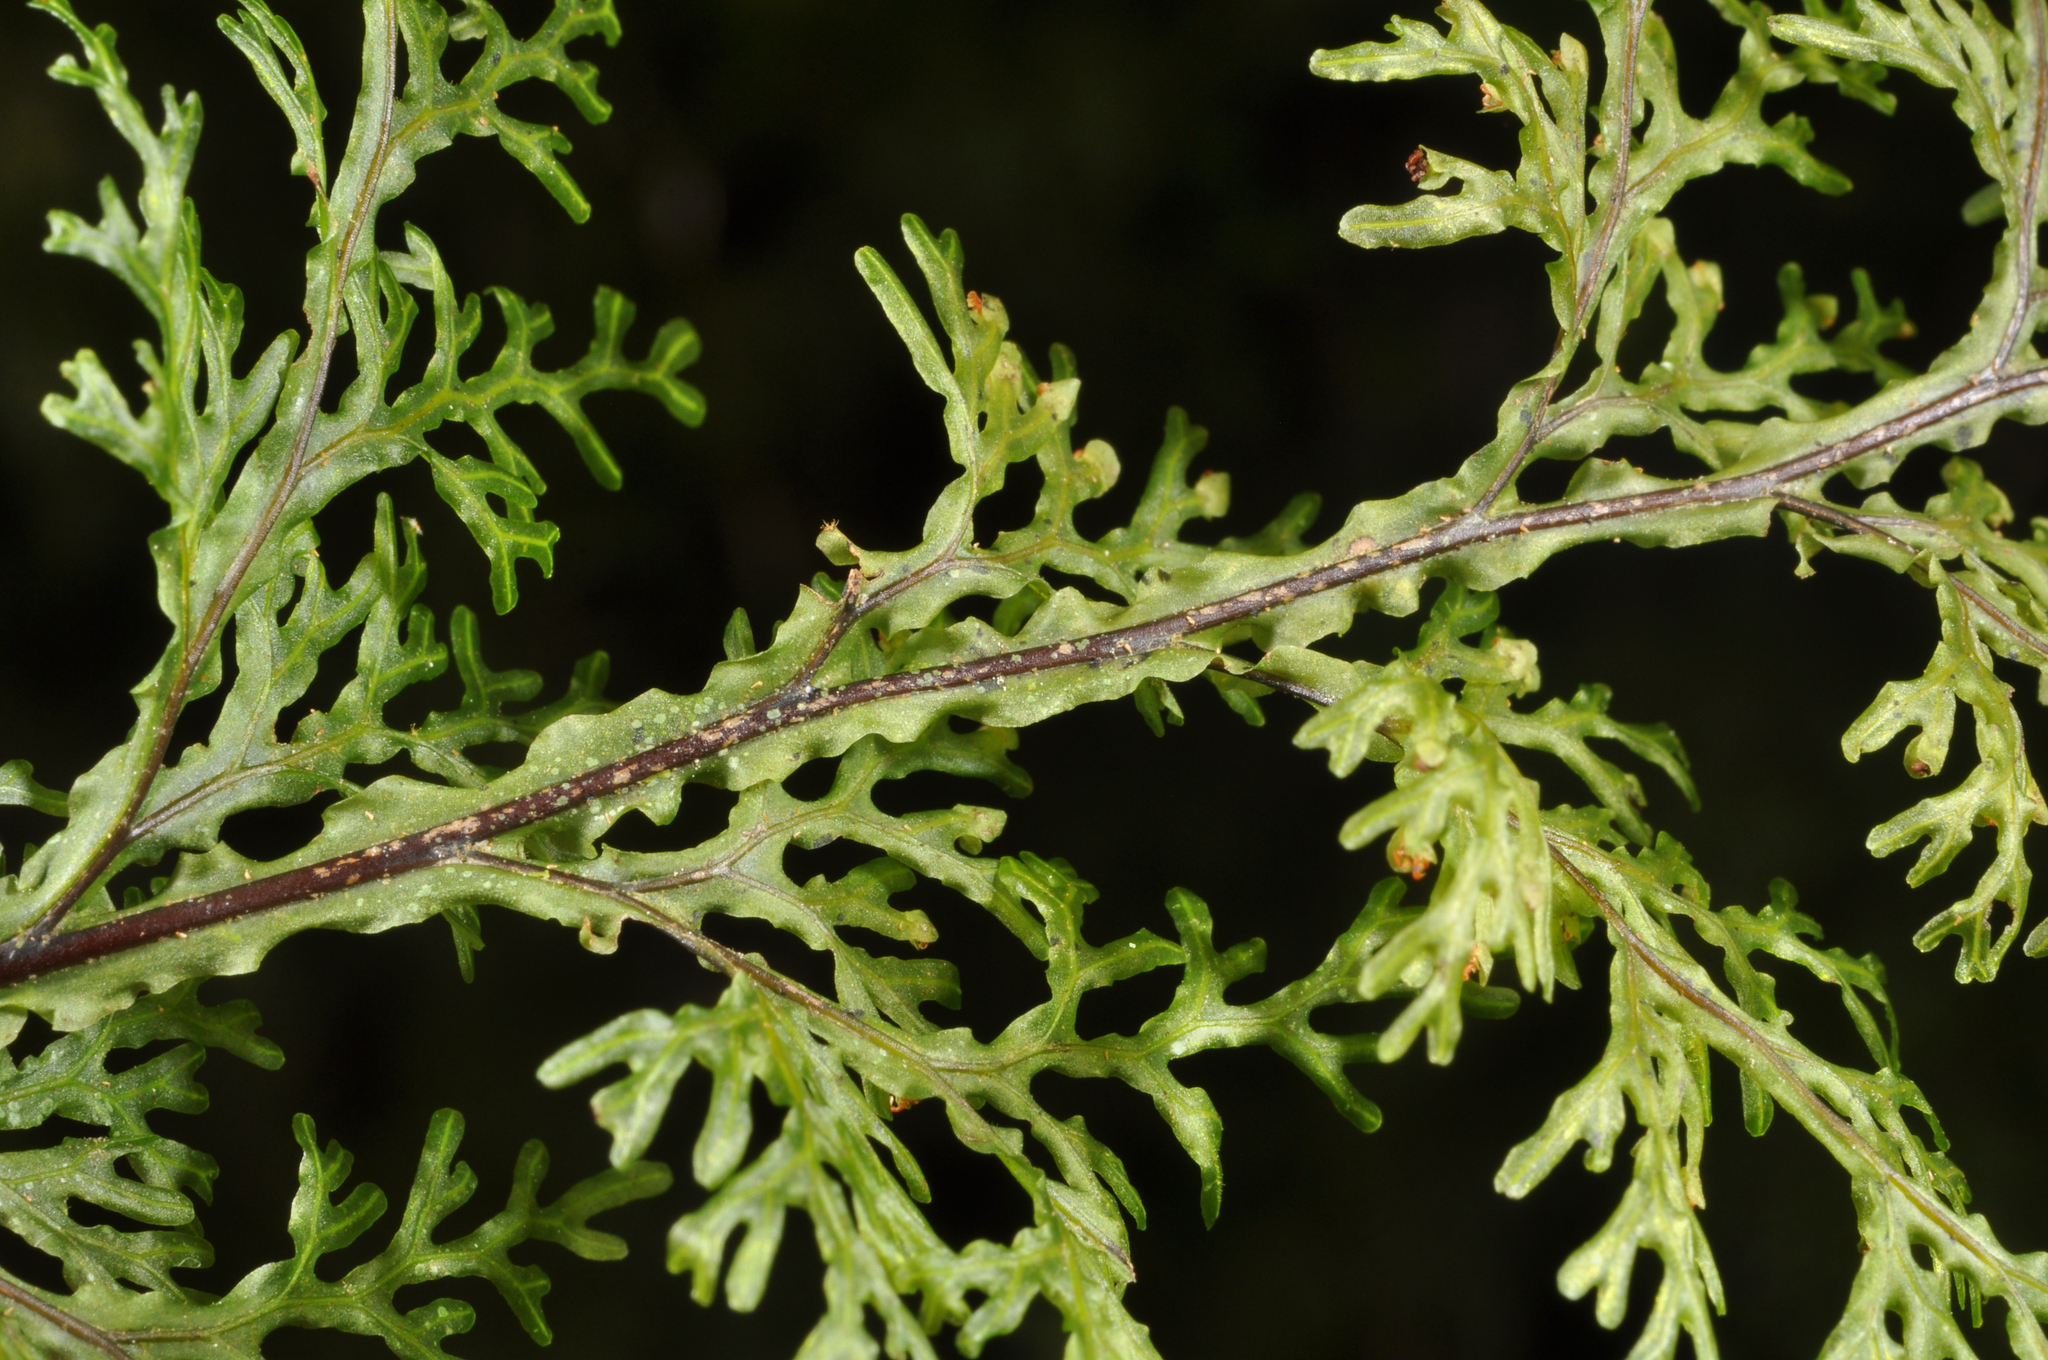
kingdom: Plantae
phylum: Tracheophyta
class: Polypodiopsida
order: Hymenophyllales
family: Hymenophyllaceae
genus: Hymenophyllum
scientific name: Hymenophyllum flexuosum
